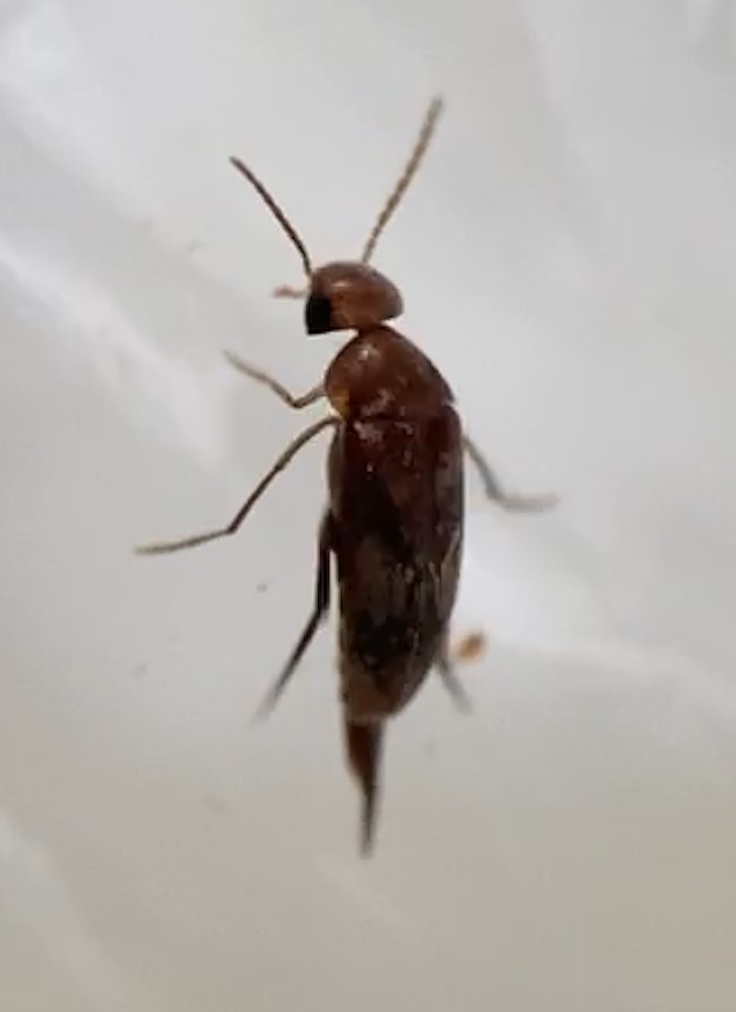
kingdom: Animalia
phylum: Arthropoda
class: Insecta
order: Coleoptera
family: Mordellidae
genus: Mordellistena
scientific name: Mordellistena masoni
